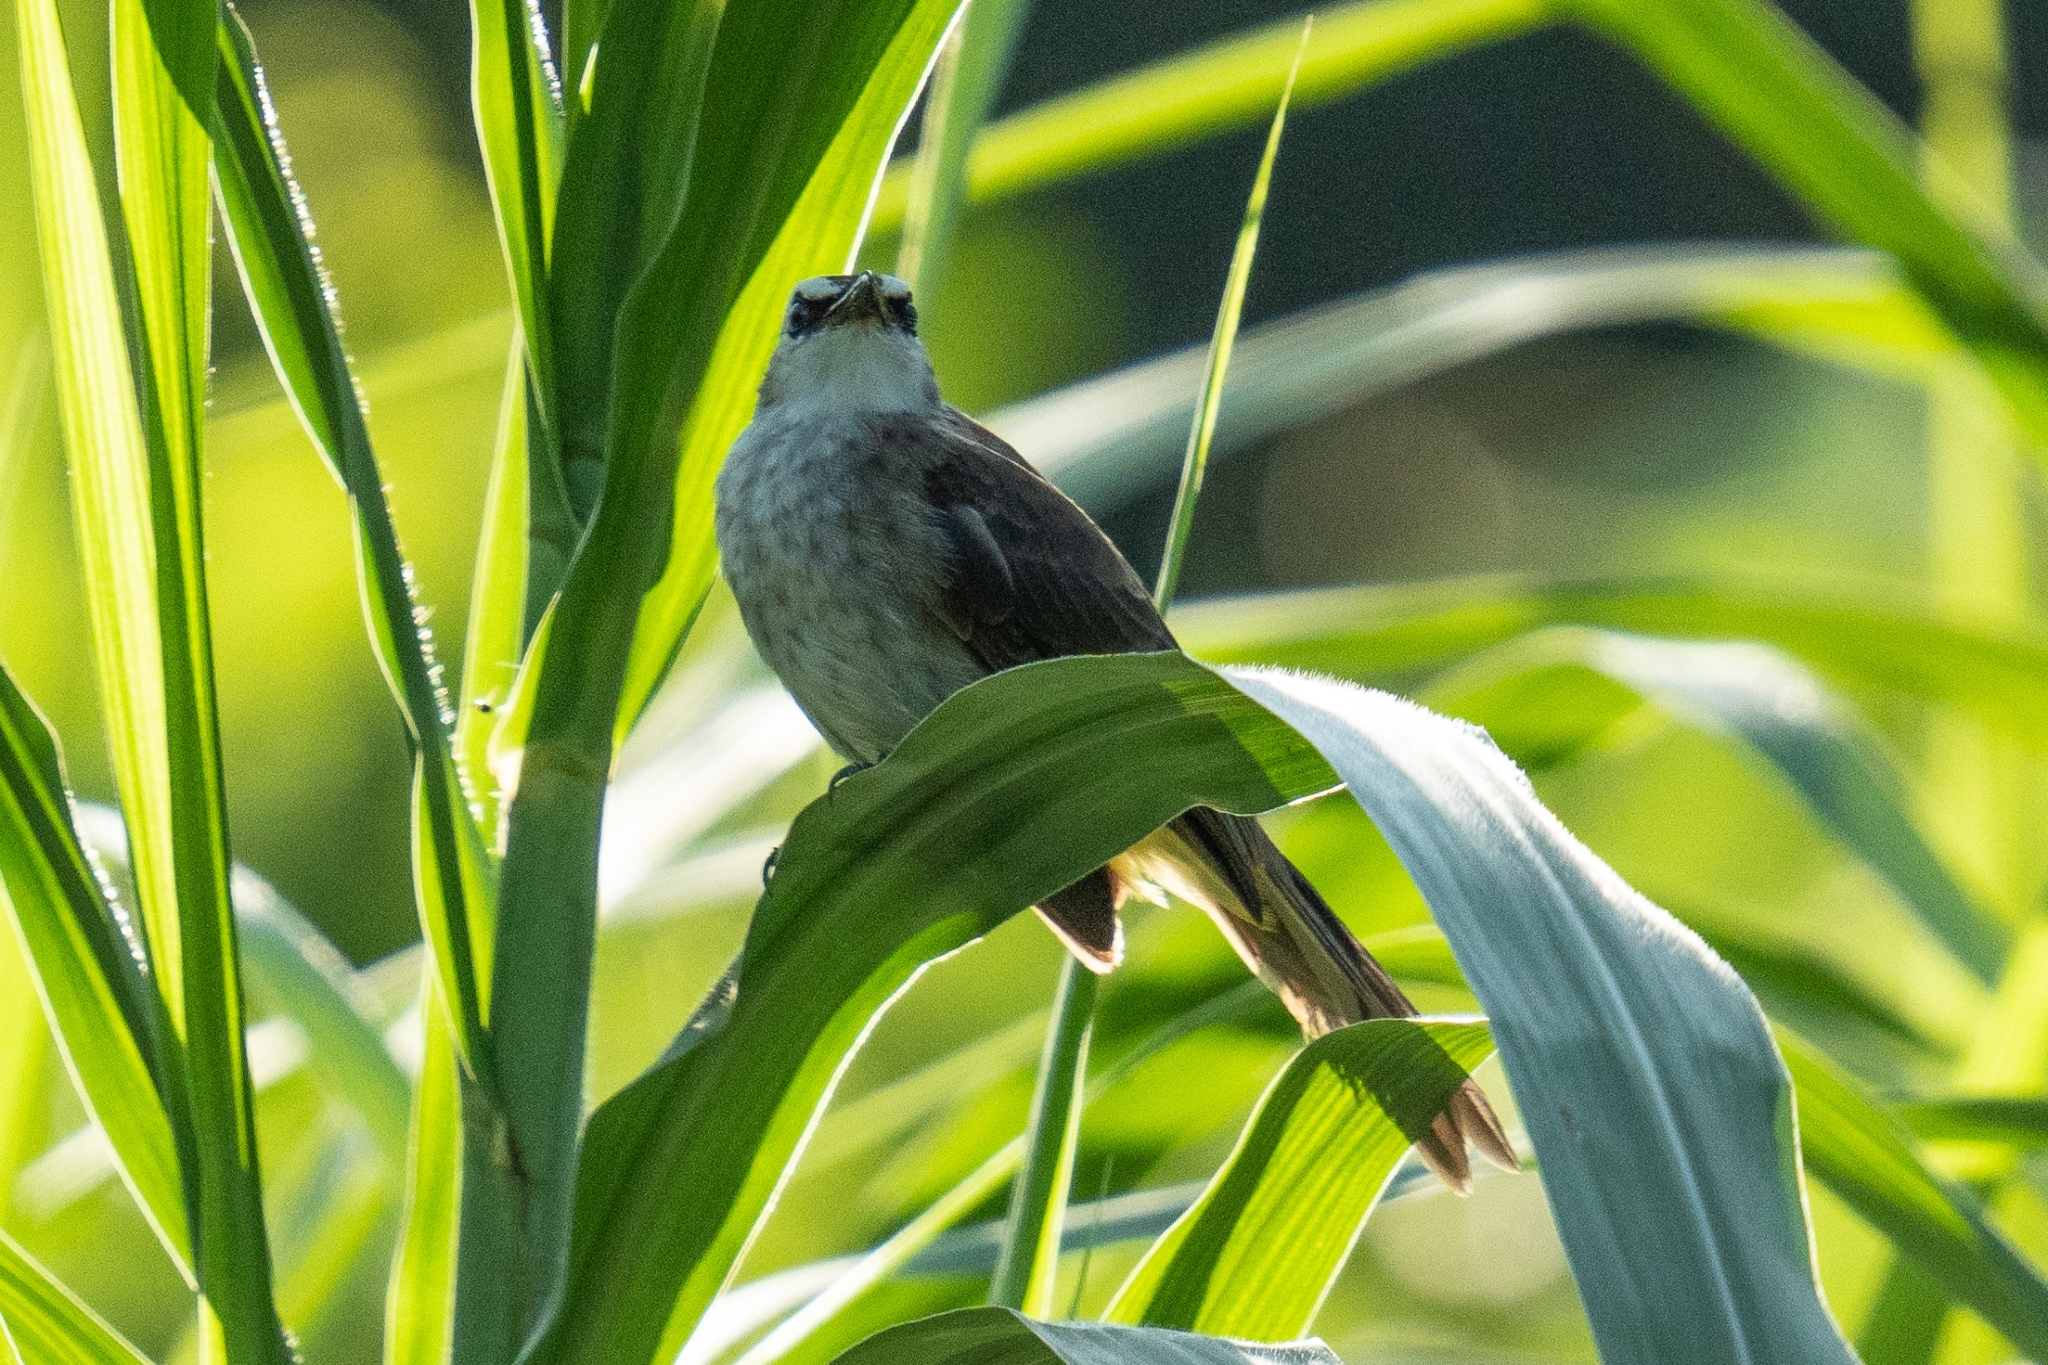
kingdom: Animalia
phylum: Chordata
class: Aves
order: Passeriformes
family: Pycnonotidae
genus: Pycnonotus
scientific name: Pycnonotus goiavier
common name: Yellow-vented bulbul
